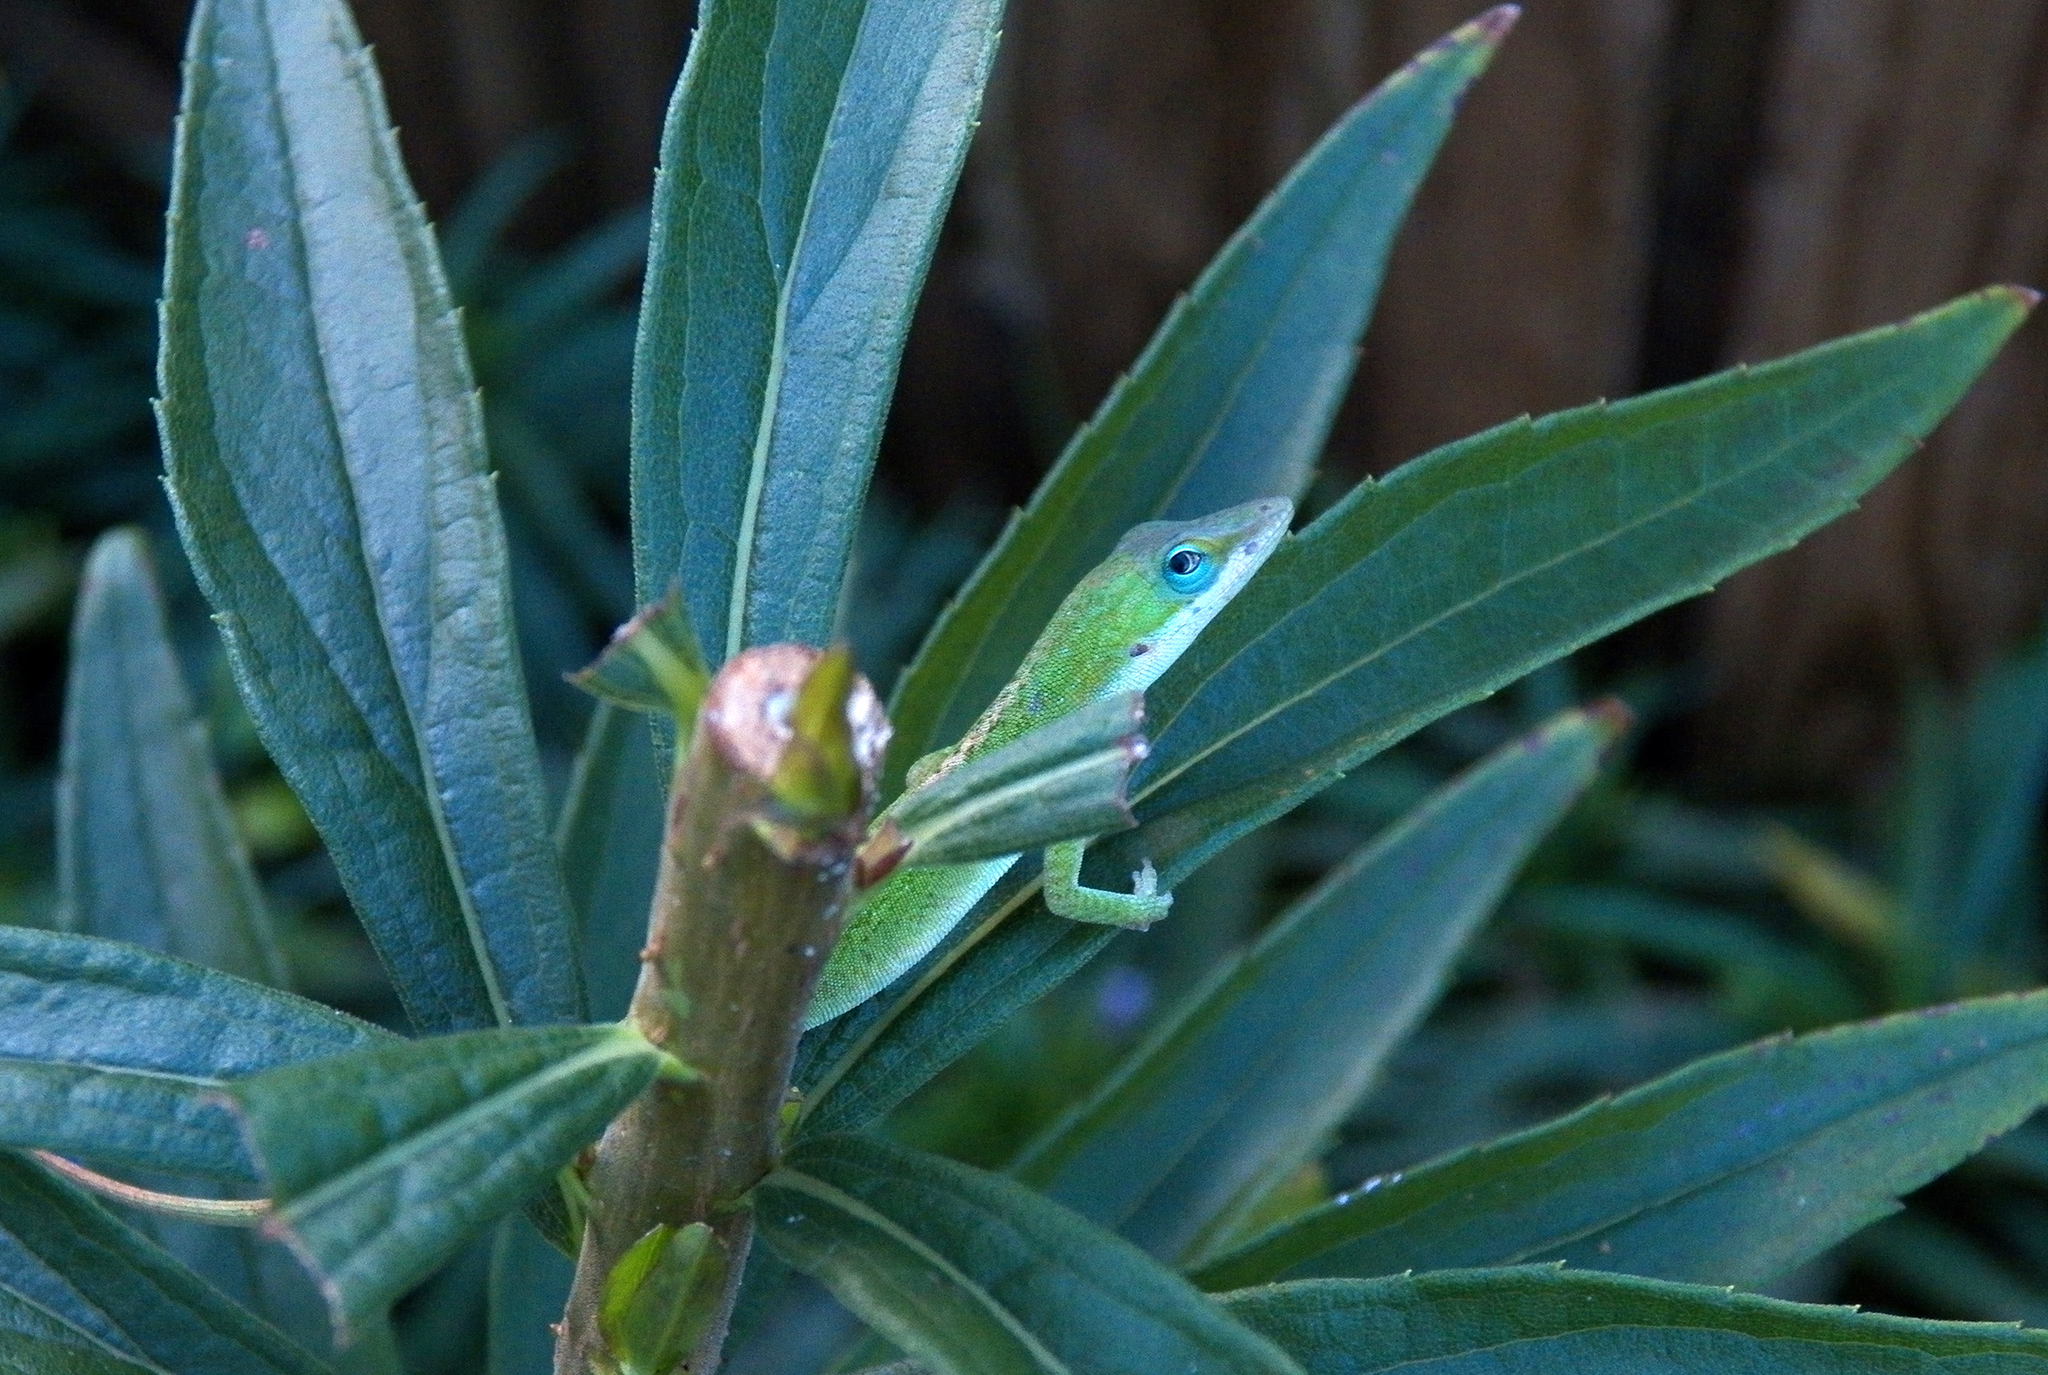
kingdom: Animalia
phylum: Chordata
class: Squamata
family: Dactyloidae
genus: Anolis
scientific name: Anolis carolinensis
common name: Green anole
